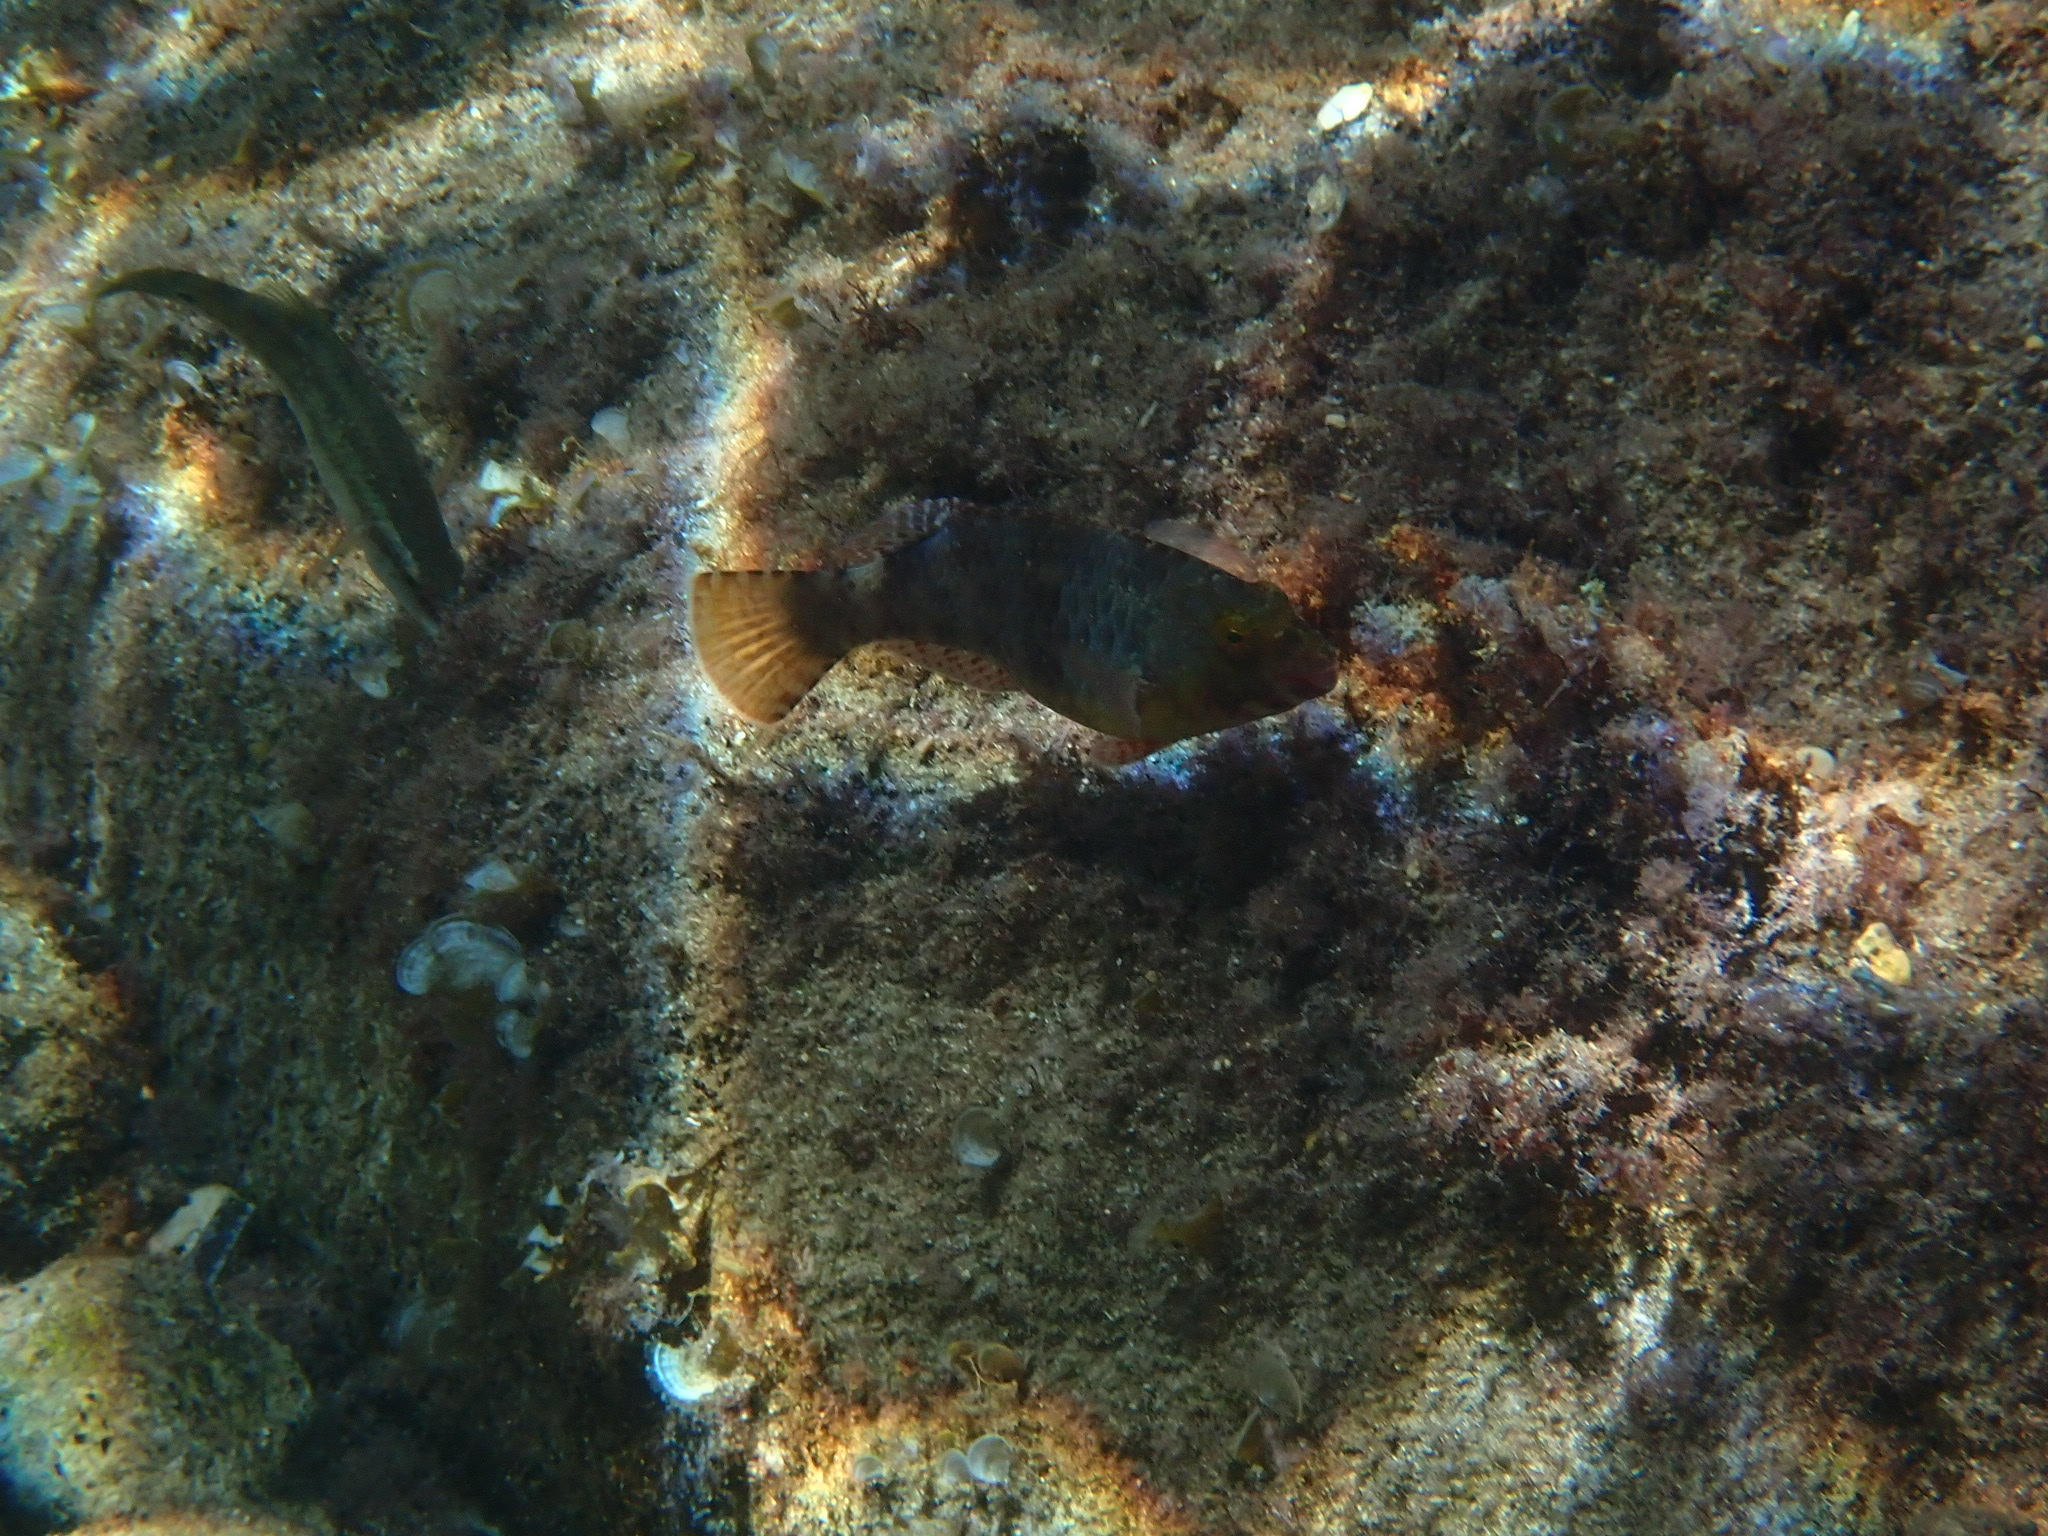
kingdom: Animalia
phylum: Chordata
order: Perciformes
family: Scaridae
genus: Sparisoma
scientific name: Sparisoma cretense
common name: Parrotfish
